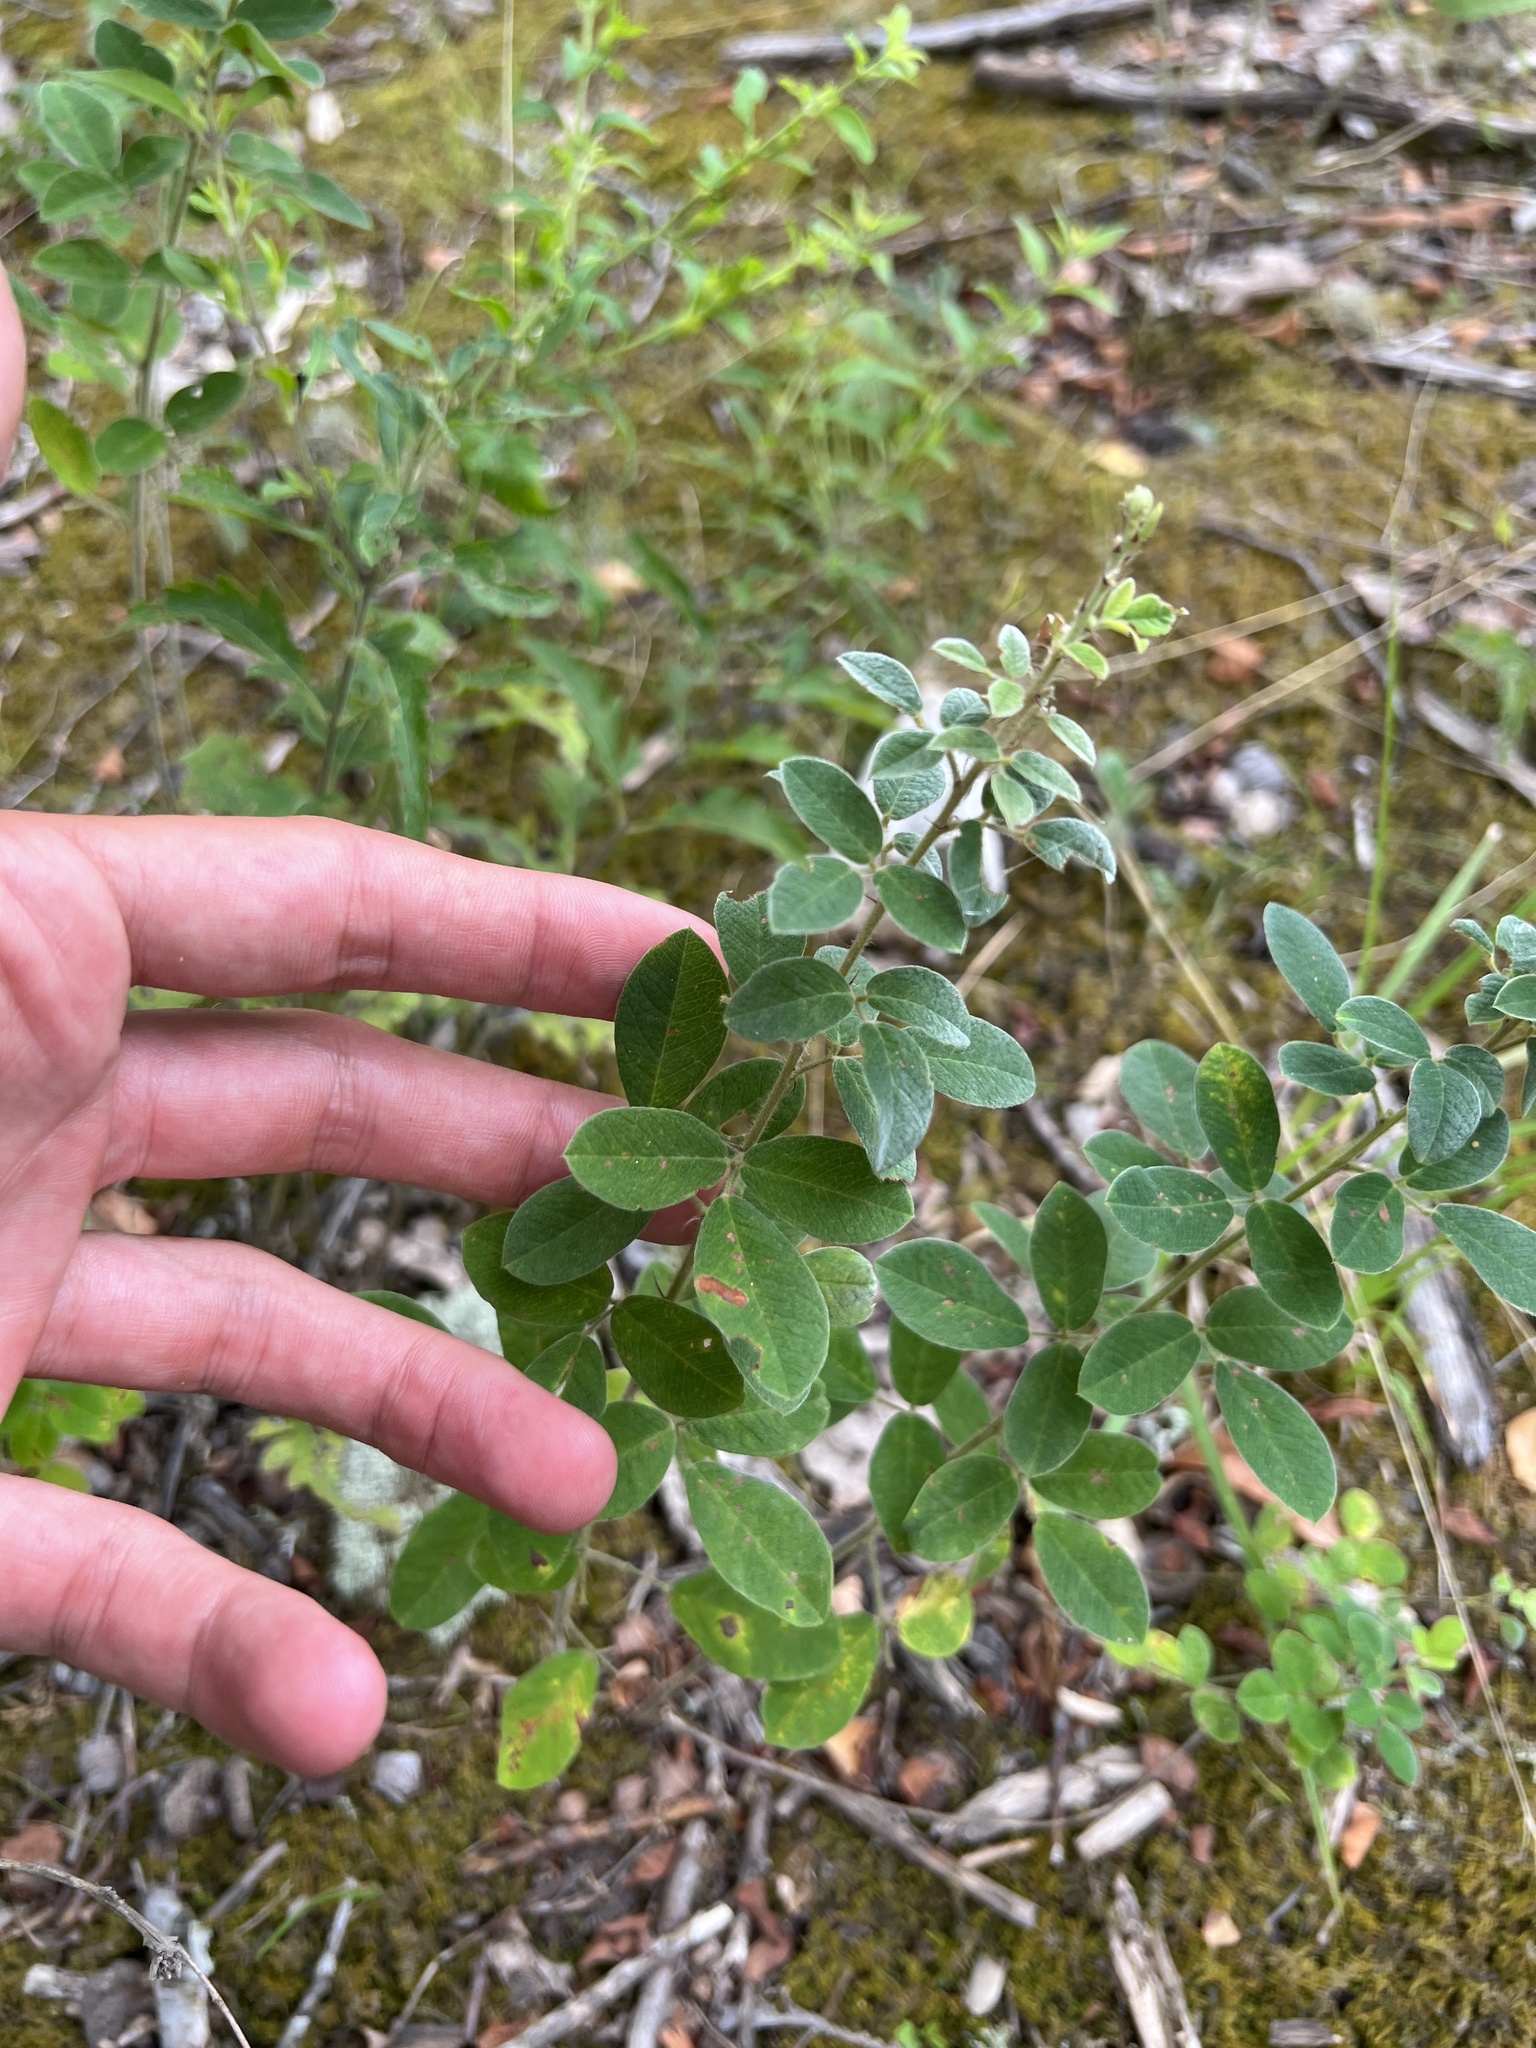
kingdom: Plantae
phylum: Tracheophyta
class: Magnoliopsida
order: Fabales
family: Fabaceae
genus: Lespedeza
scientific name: Lespedeza hirta
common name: Hairy lespedeza
